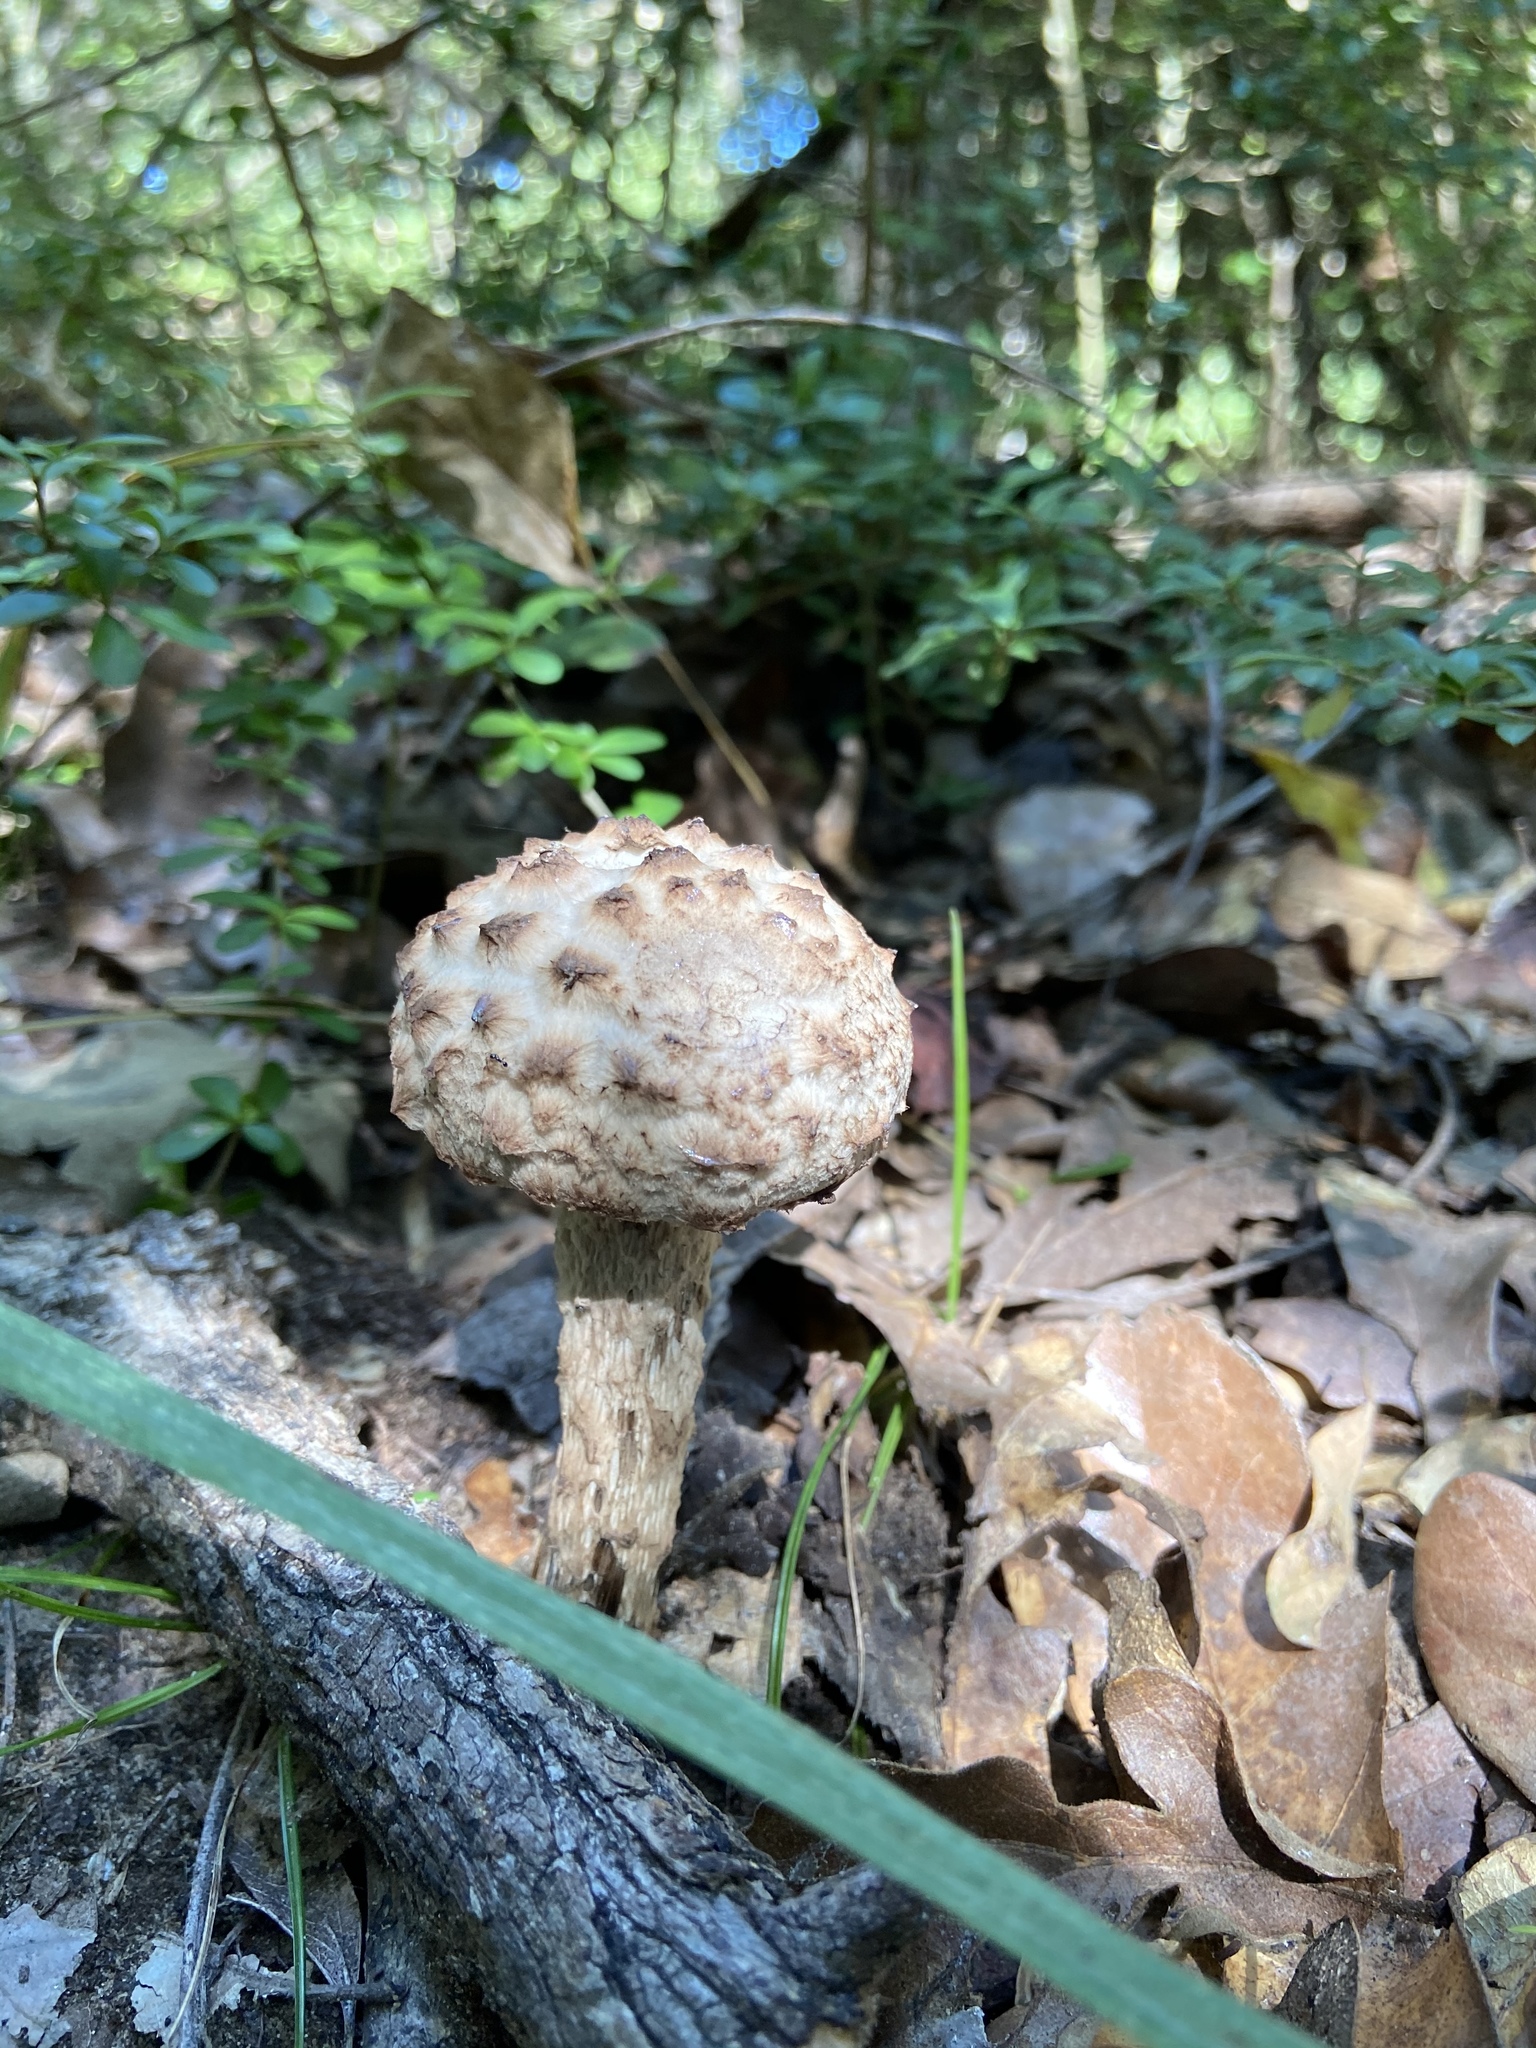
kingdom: Fungi
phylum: Basidiomycota
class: Agaricomycetes
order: Boletales
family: Boletaceae
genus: Strobilomyces
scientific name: Strobilomyces strobilaceus
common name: Old man of the woods
